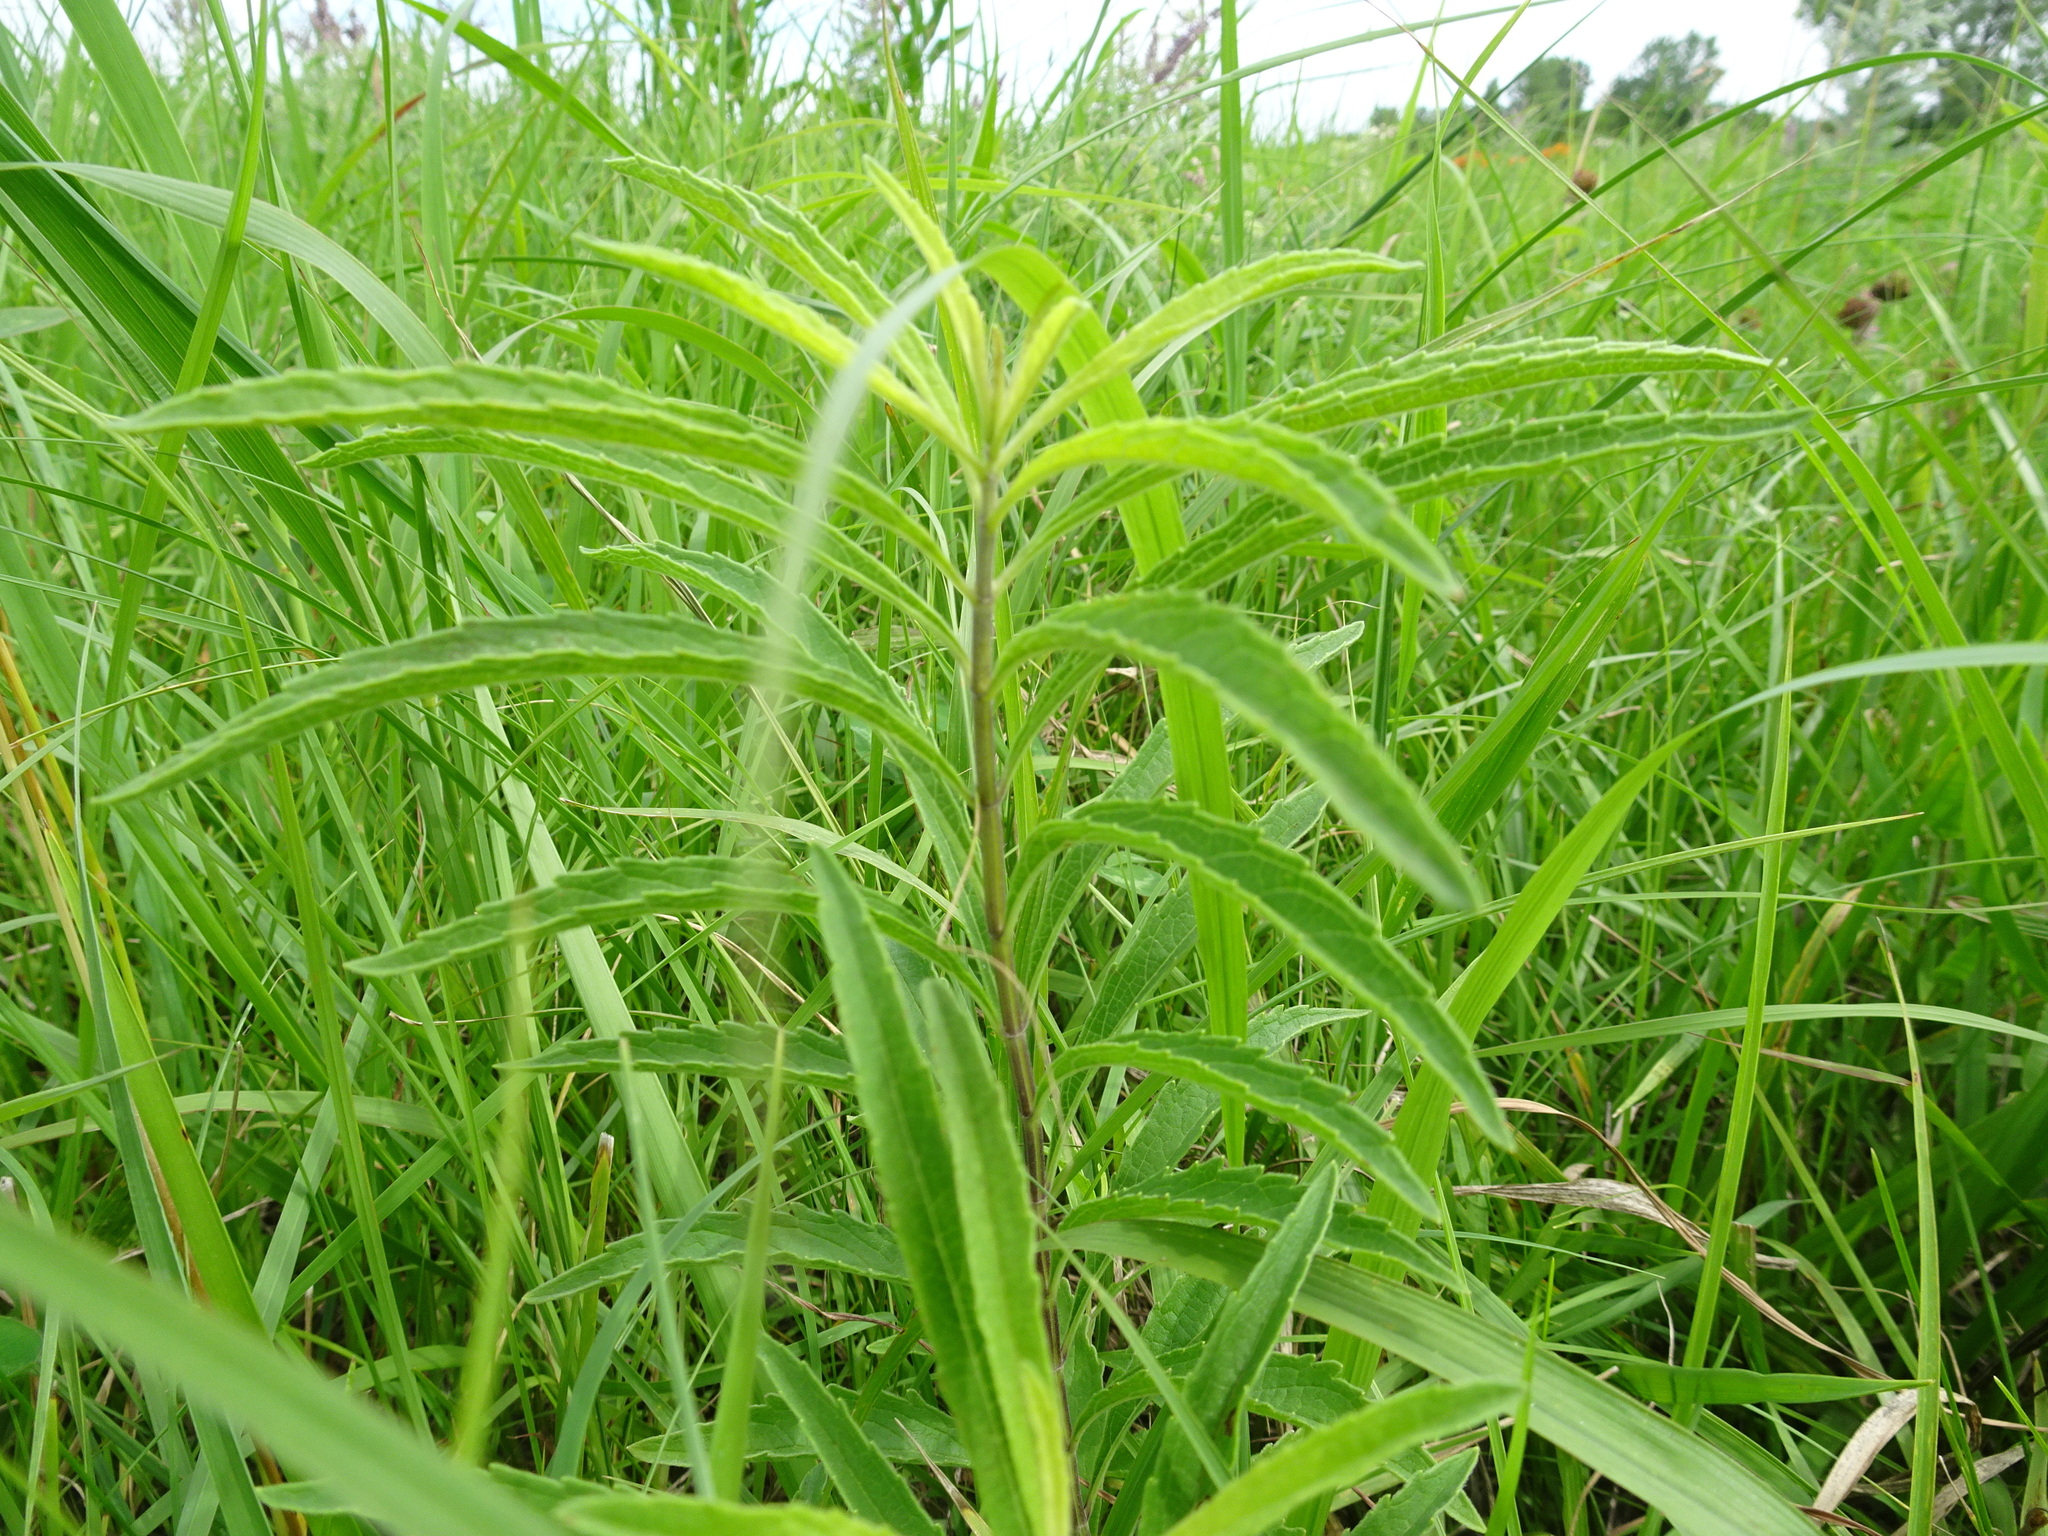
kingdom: Plantae
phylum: Tracheophyta
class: Magnoliopsida
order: Lamiales
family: Lamiaceae
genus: Salvia
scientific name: Salvia azurea
